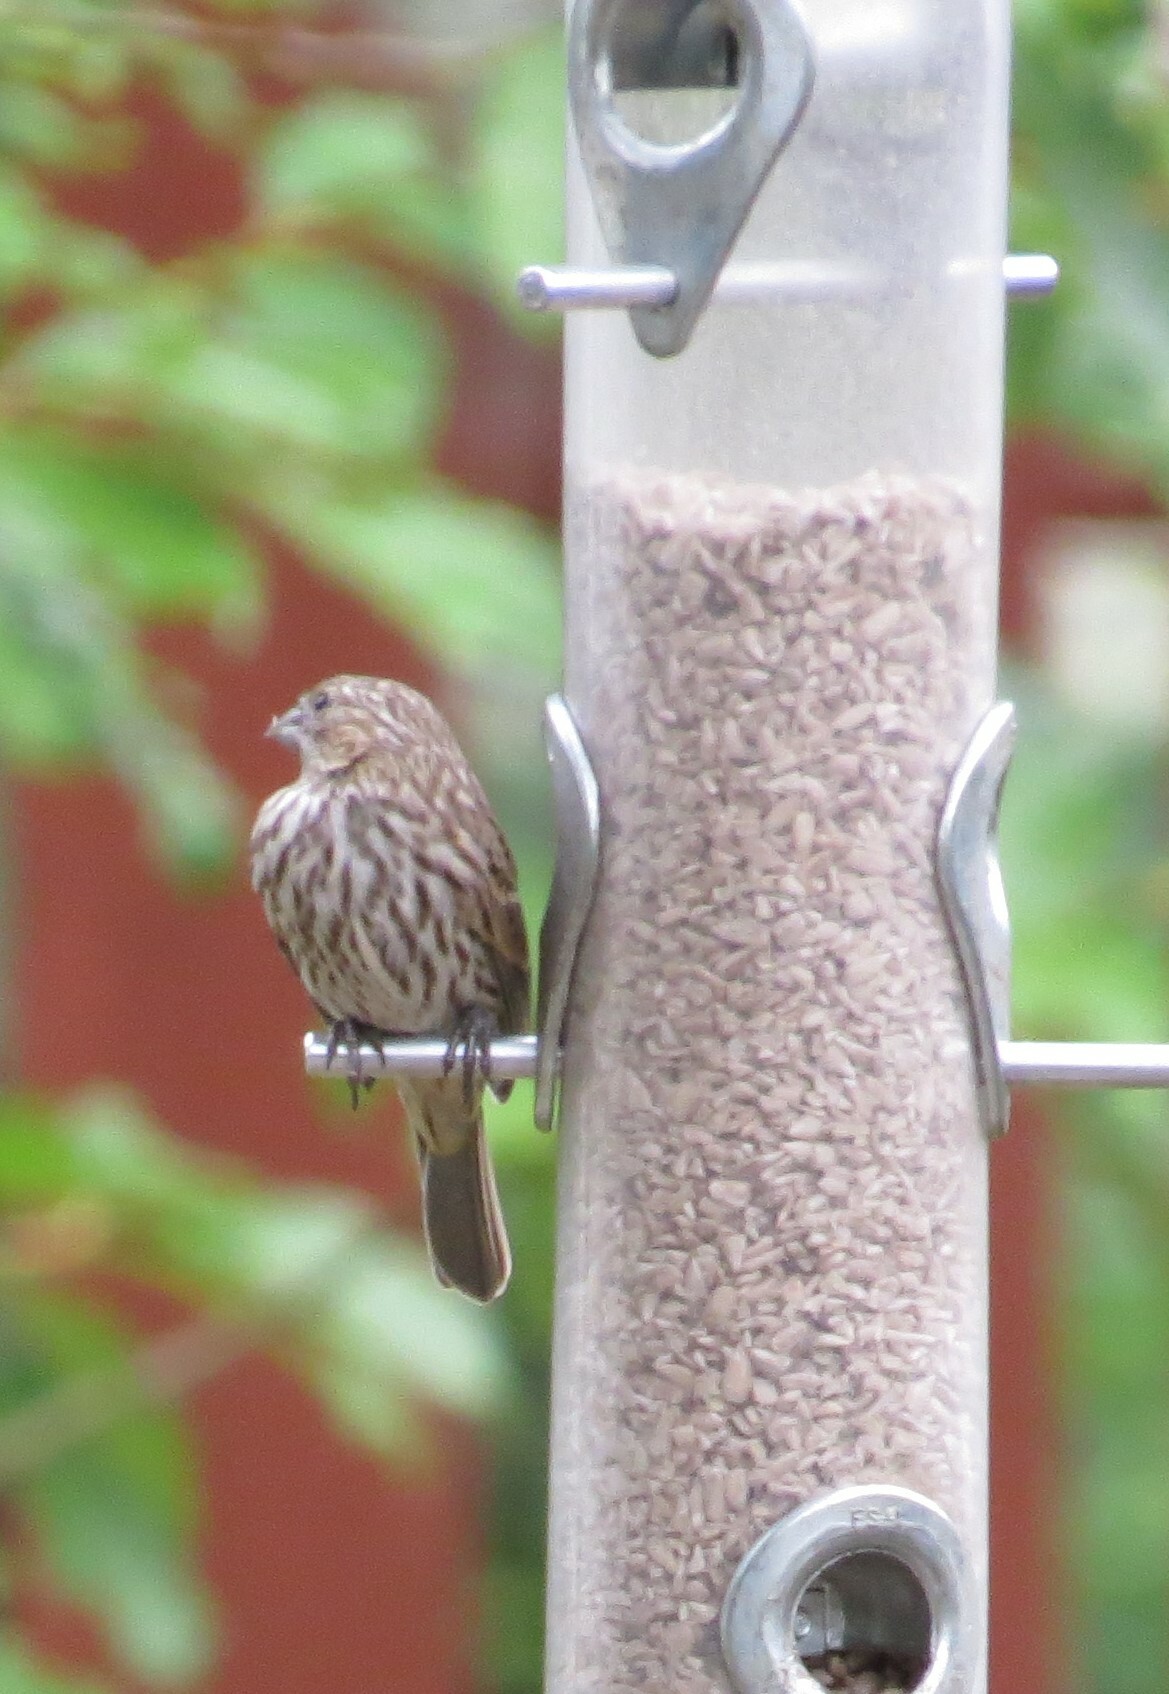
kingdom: Animalia
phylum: Chordata
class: Aves
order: Passeriformes
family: Fringillidae
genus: Haemorhous
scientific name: Haemorhous mexicanus
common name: House finch
